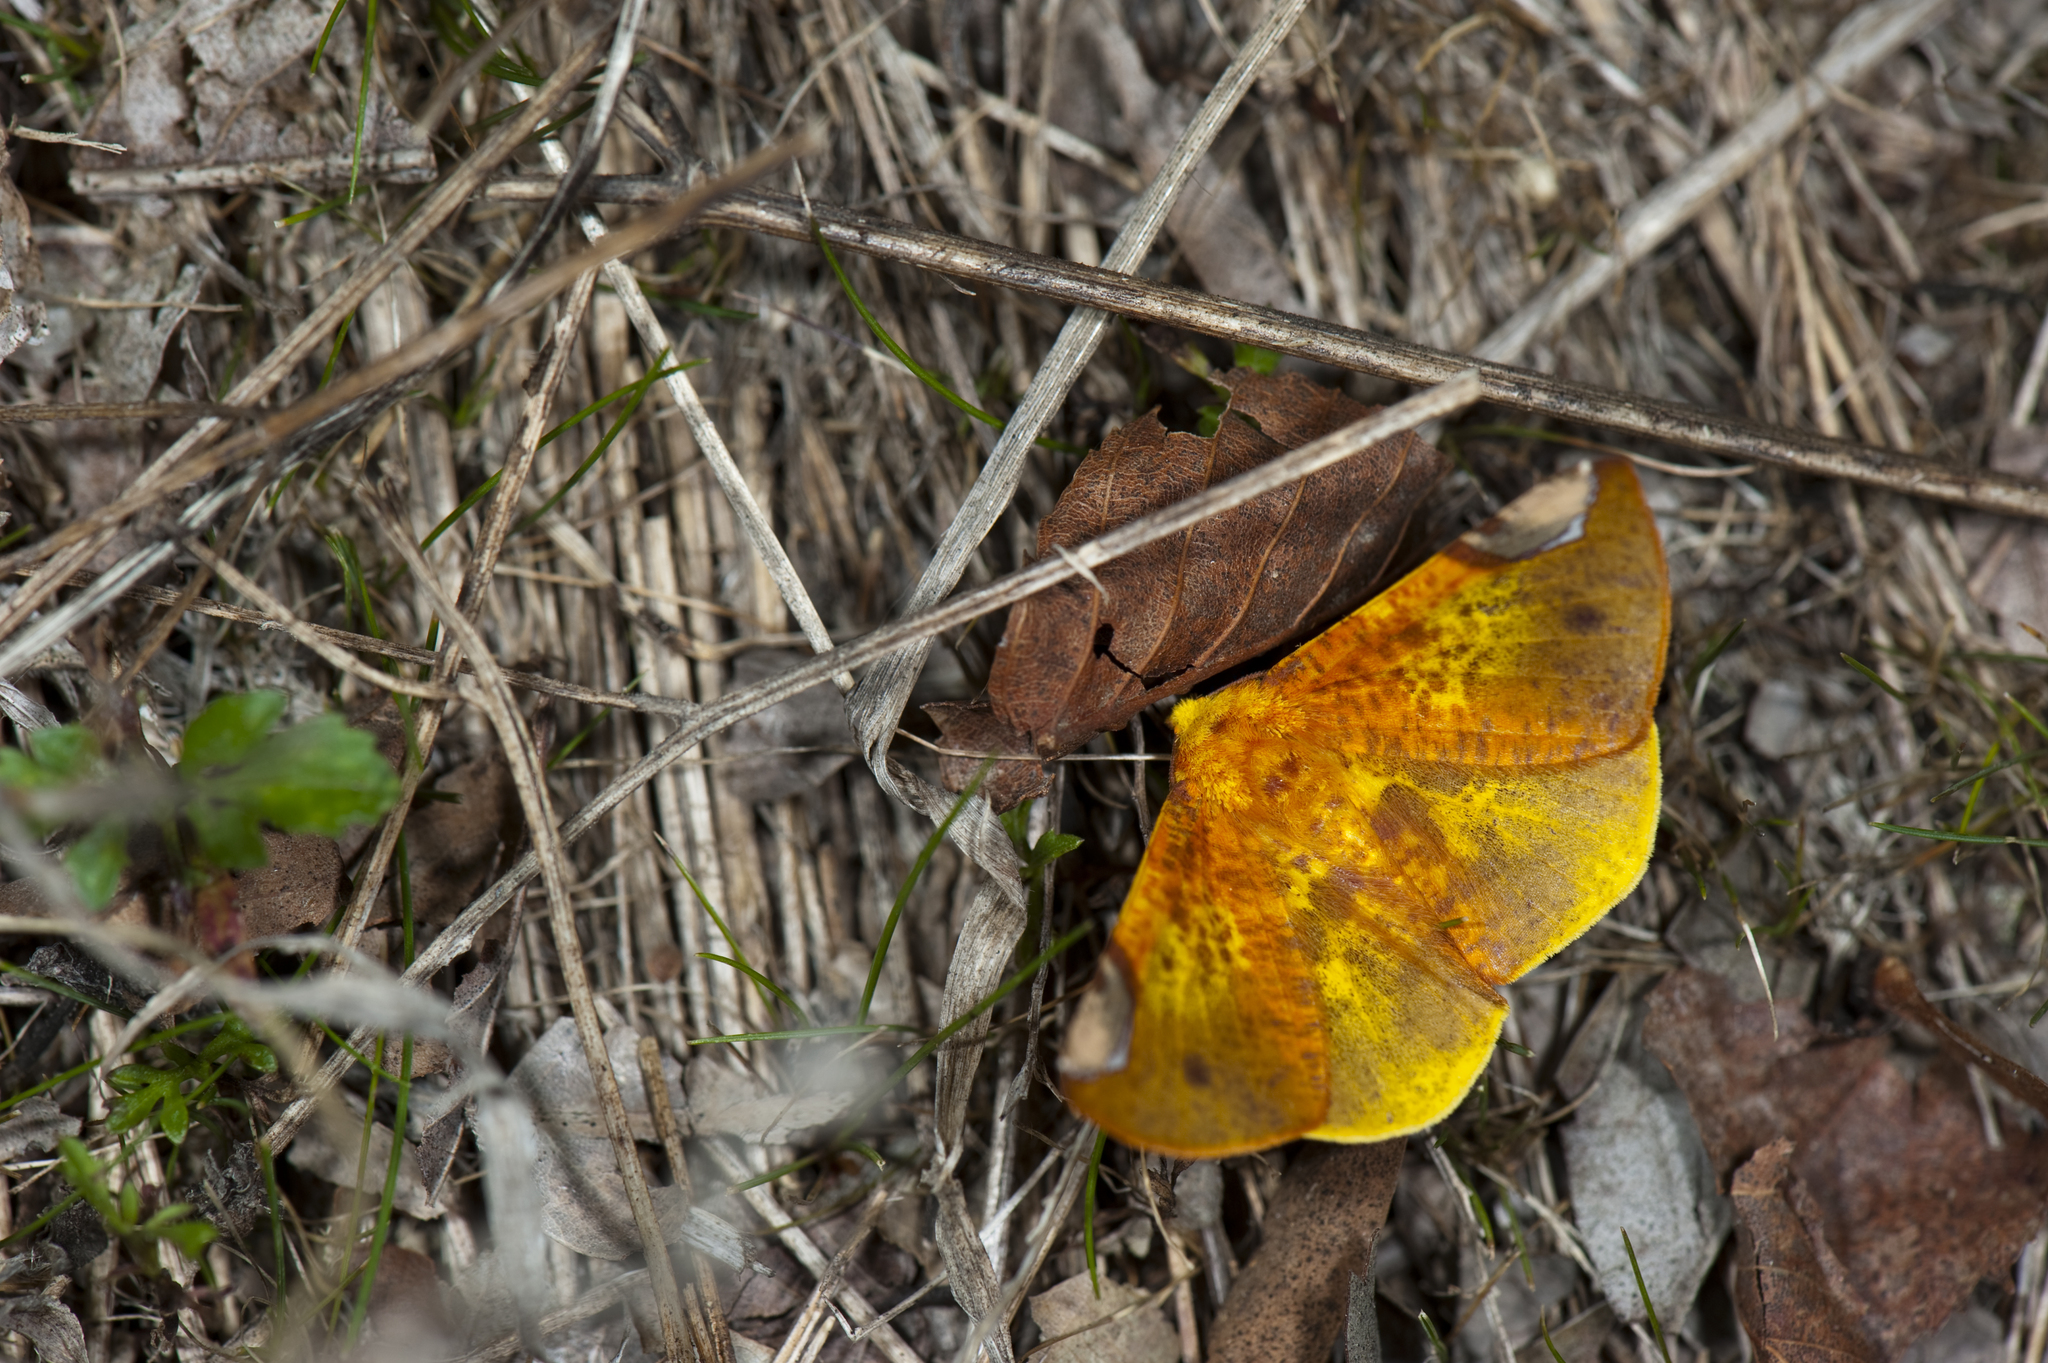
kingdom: Animalia
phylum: Arthropoda
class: Insecta
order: Lepidoptera
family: Geometridae
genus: Pseudomiza
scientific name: Pseudomiza leucogonia
